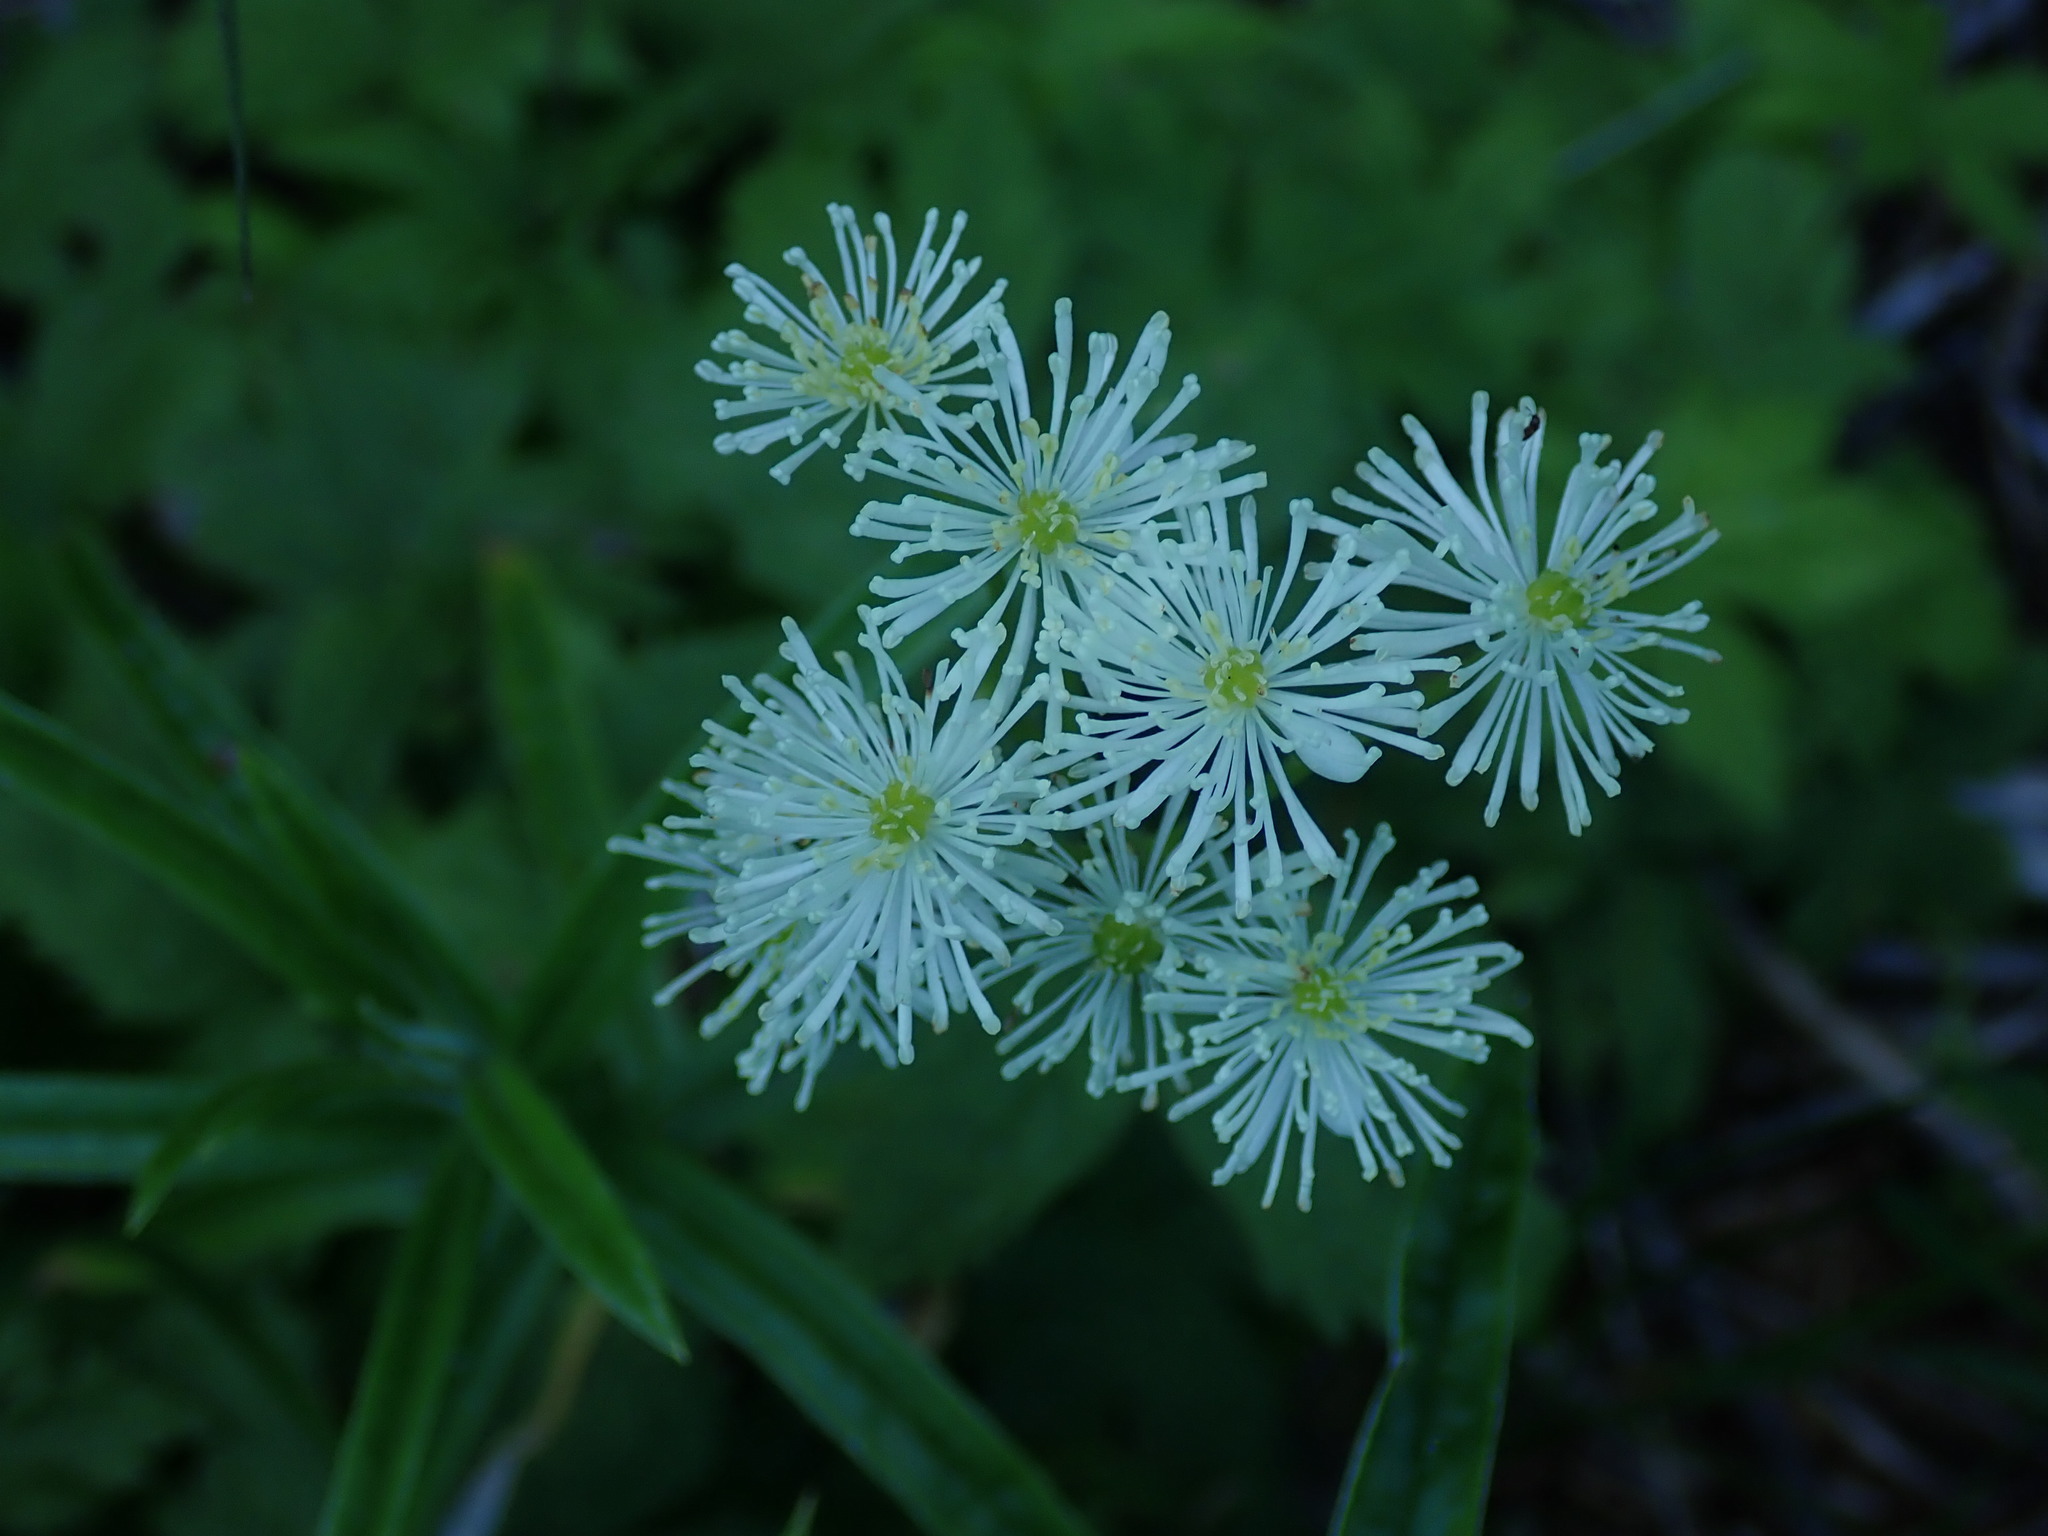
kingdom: Plantae
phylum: Tracheophyta
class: Magnoliopsida
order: Ranunculales
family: Ranunculaceae
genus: Trautvetteria
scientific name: Trautvetteria carolinensis
